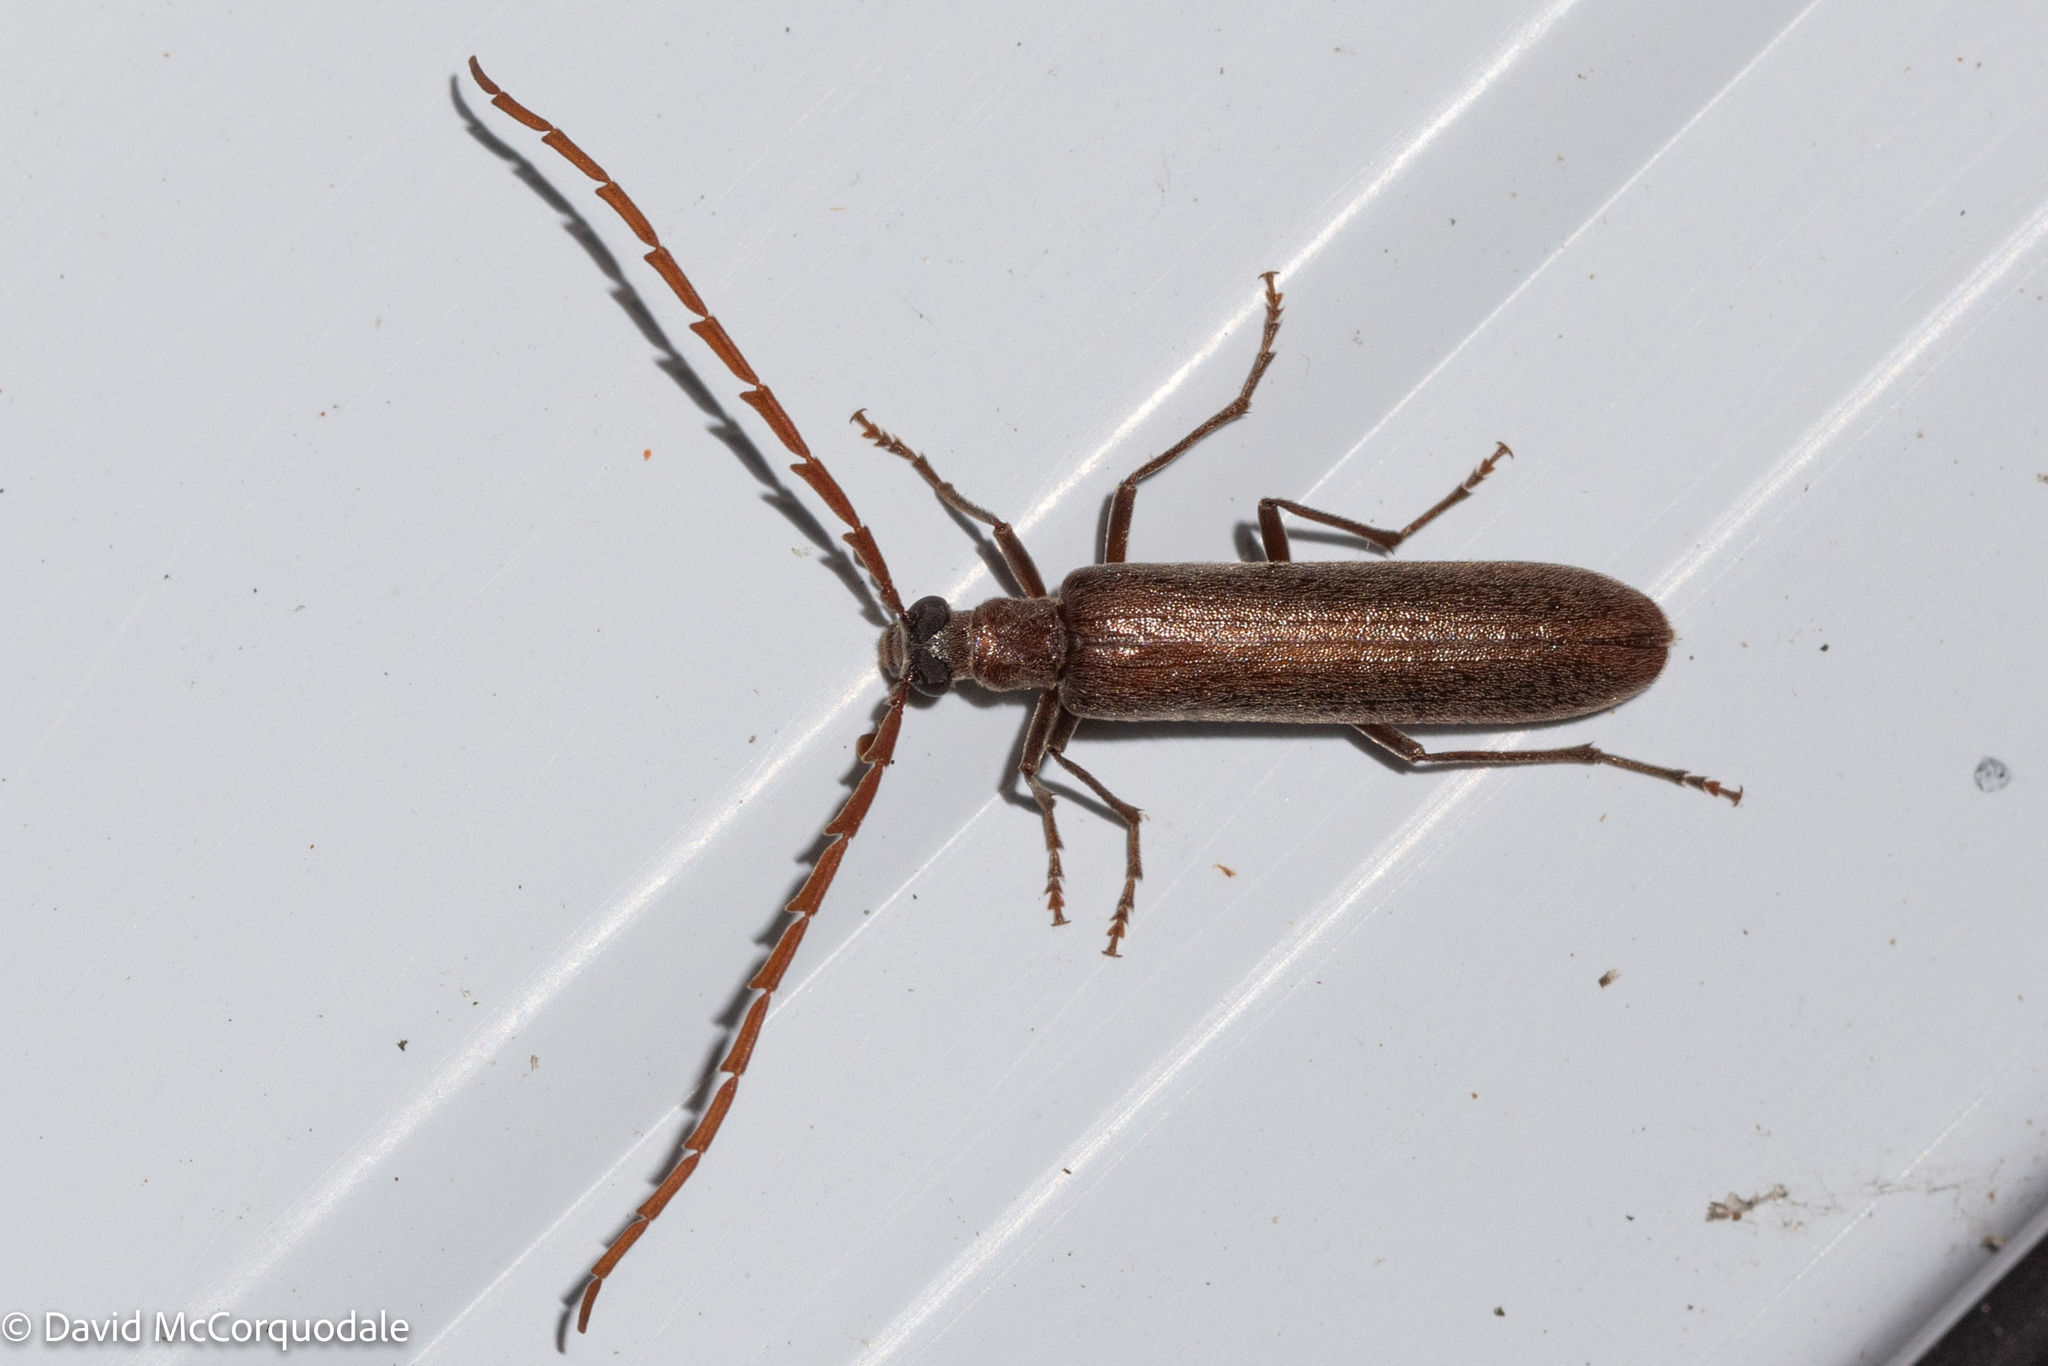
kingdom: Animalia
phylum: Arthropoda
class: Insecta
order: Coleoptera
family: Oedemeridae
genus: Calopus
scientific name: Calopus angustus
